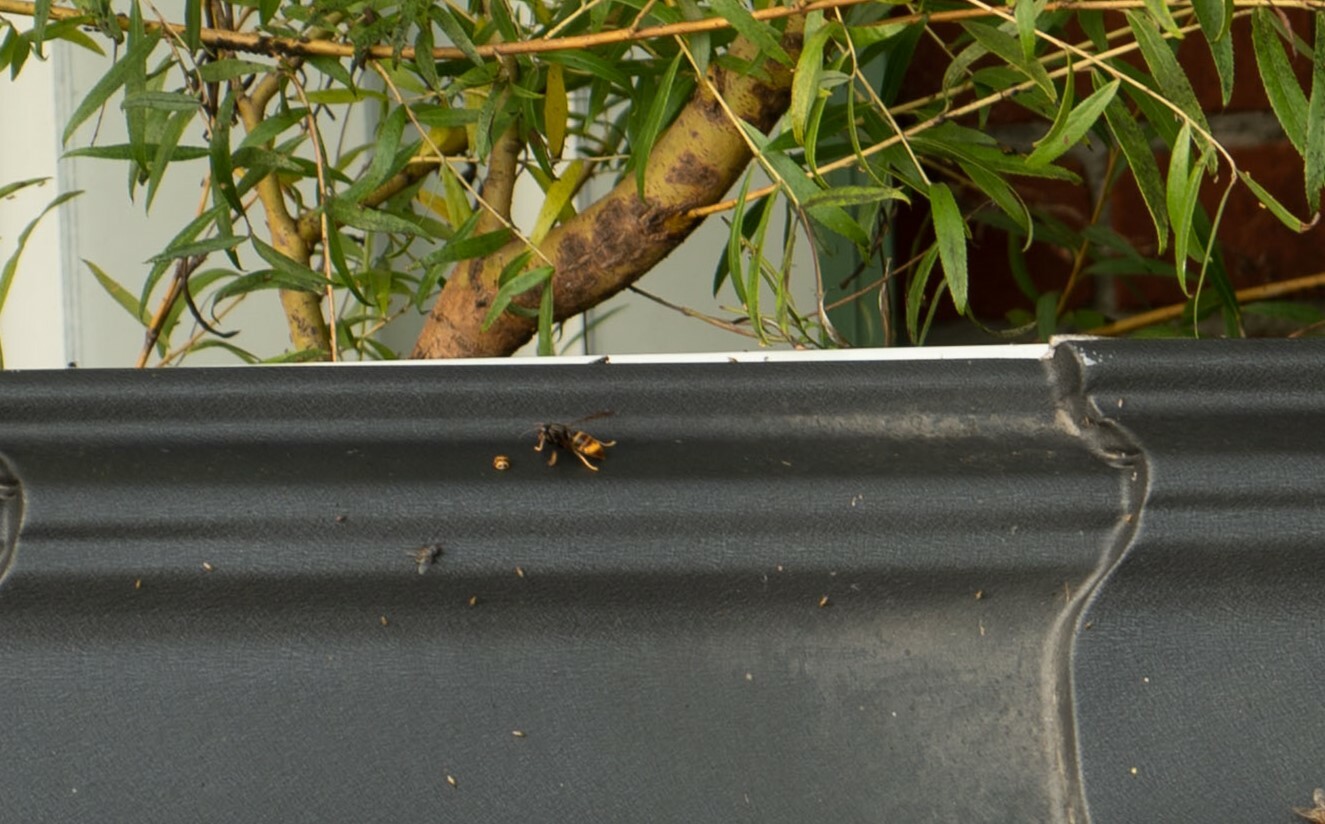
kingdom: Animalia
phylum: Arthropoda
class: Insecta
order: Hymenoptera
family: Vespidae
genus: Vespa
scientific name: Vespa velutina
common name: Asian hornet
